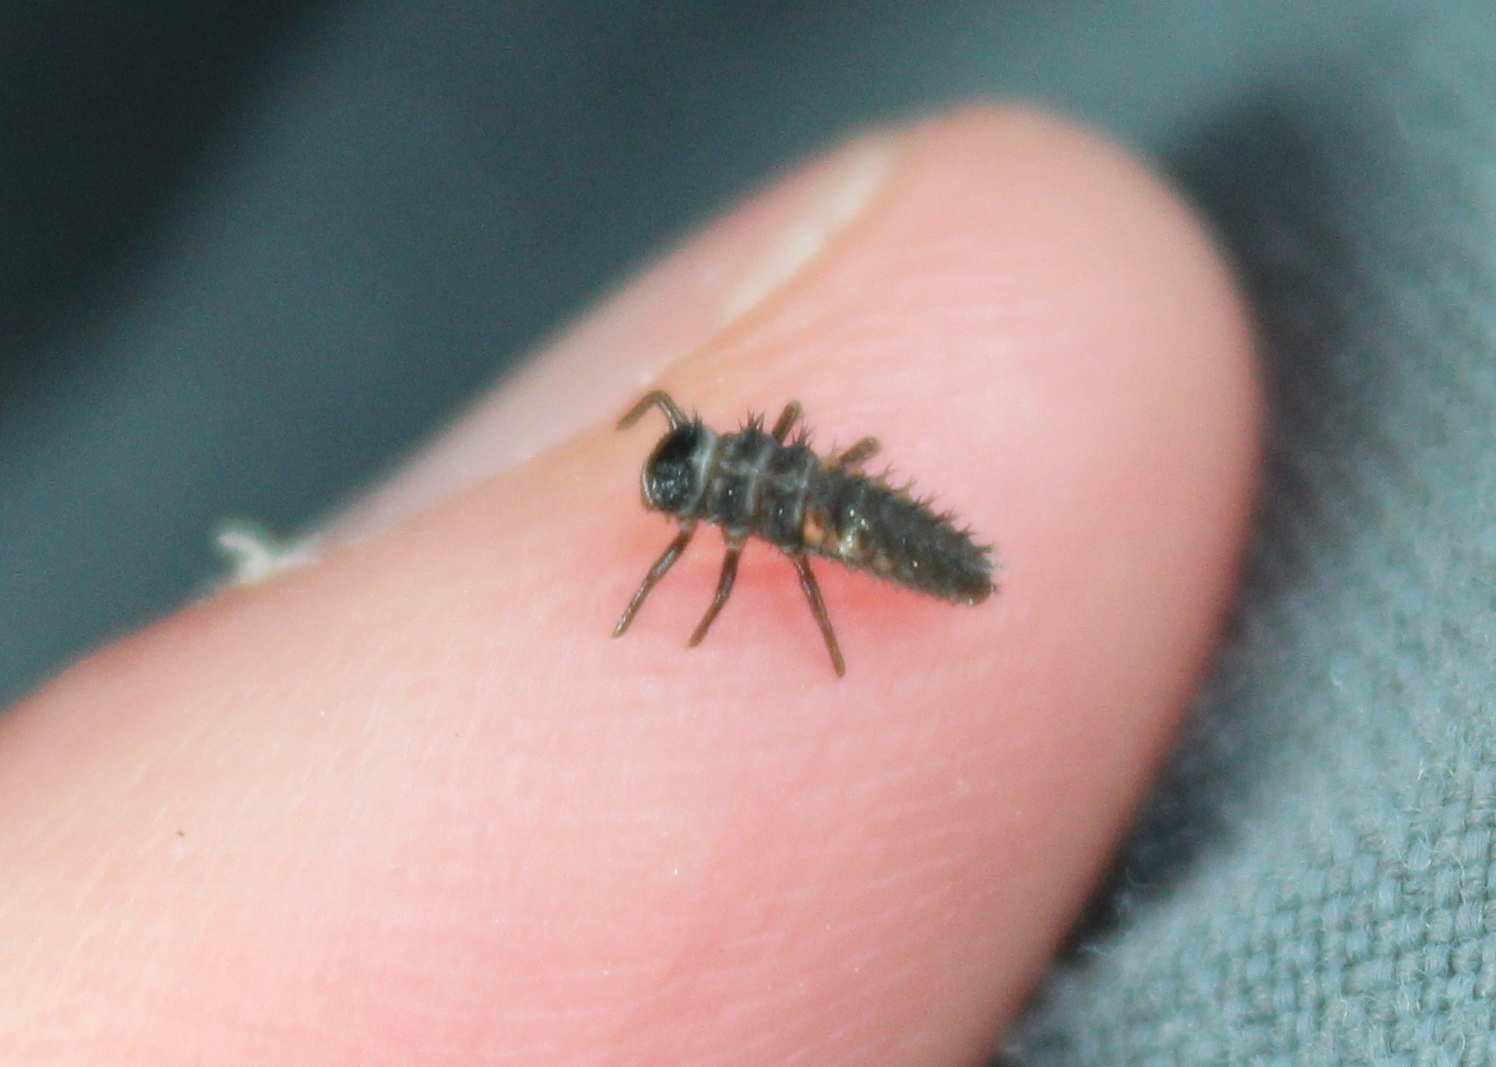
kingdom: Animalia
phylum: Arthropoda
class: Insecta
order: Coleoptera
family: Coccinellidae
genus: Harmonia
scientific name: Harmonia axyridis
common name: Harlequin ladybird
